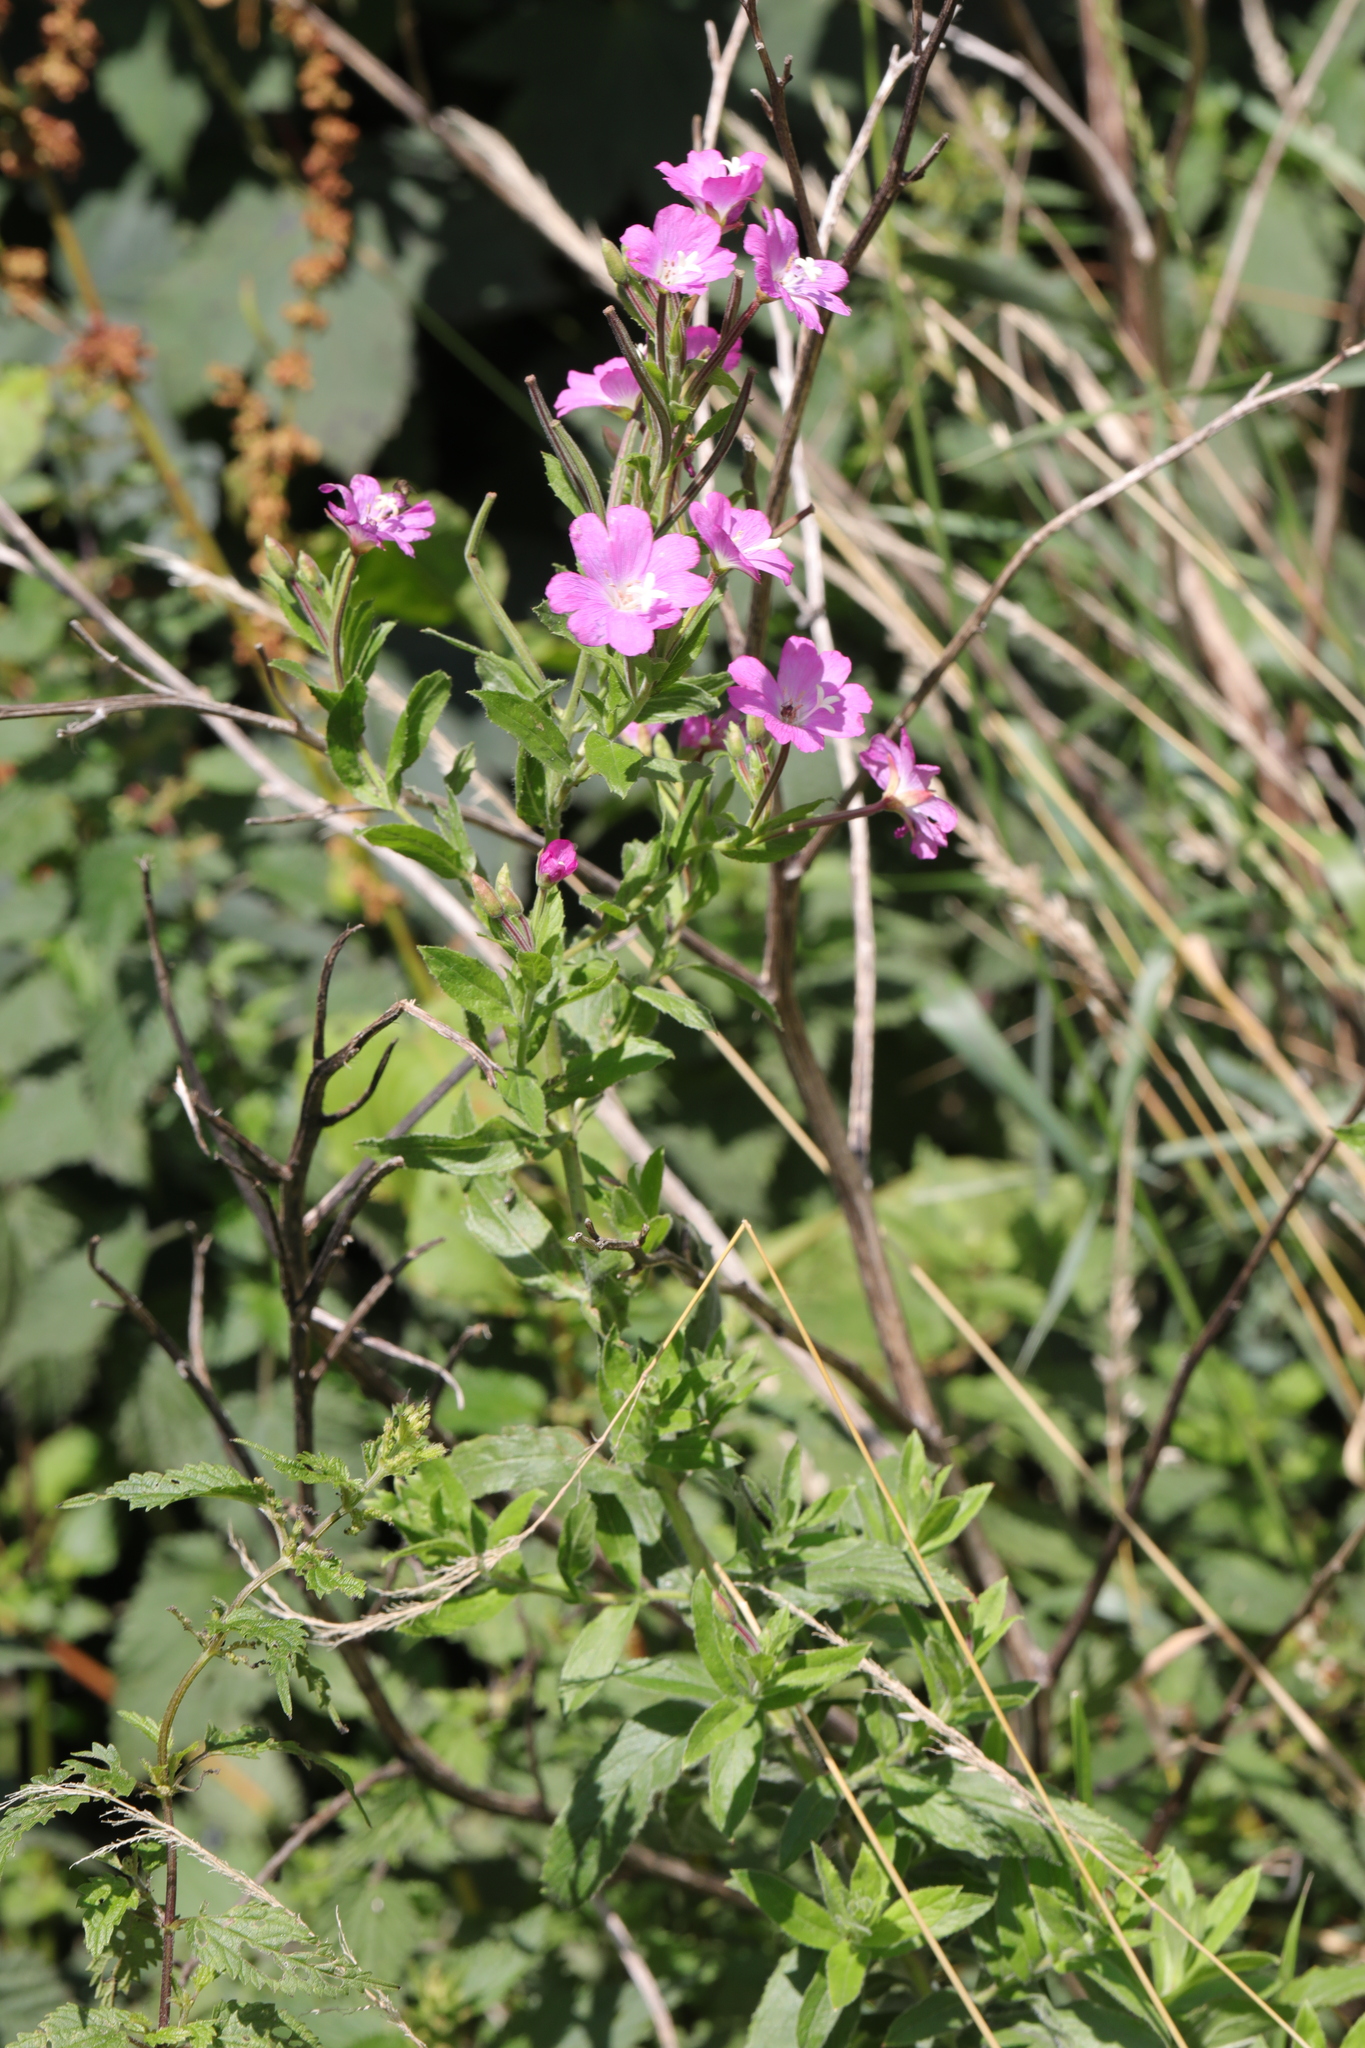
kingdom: Plantae
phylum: Tracheophyta
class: Magnoliopsida
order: Myrtales
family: Onagraceae
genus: Epilobium
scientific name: Epilobium hirsutum
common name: Great willowherb
